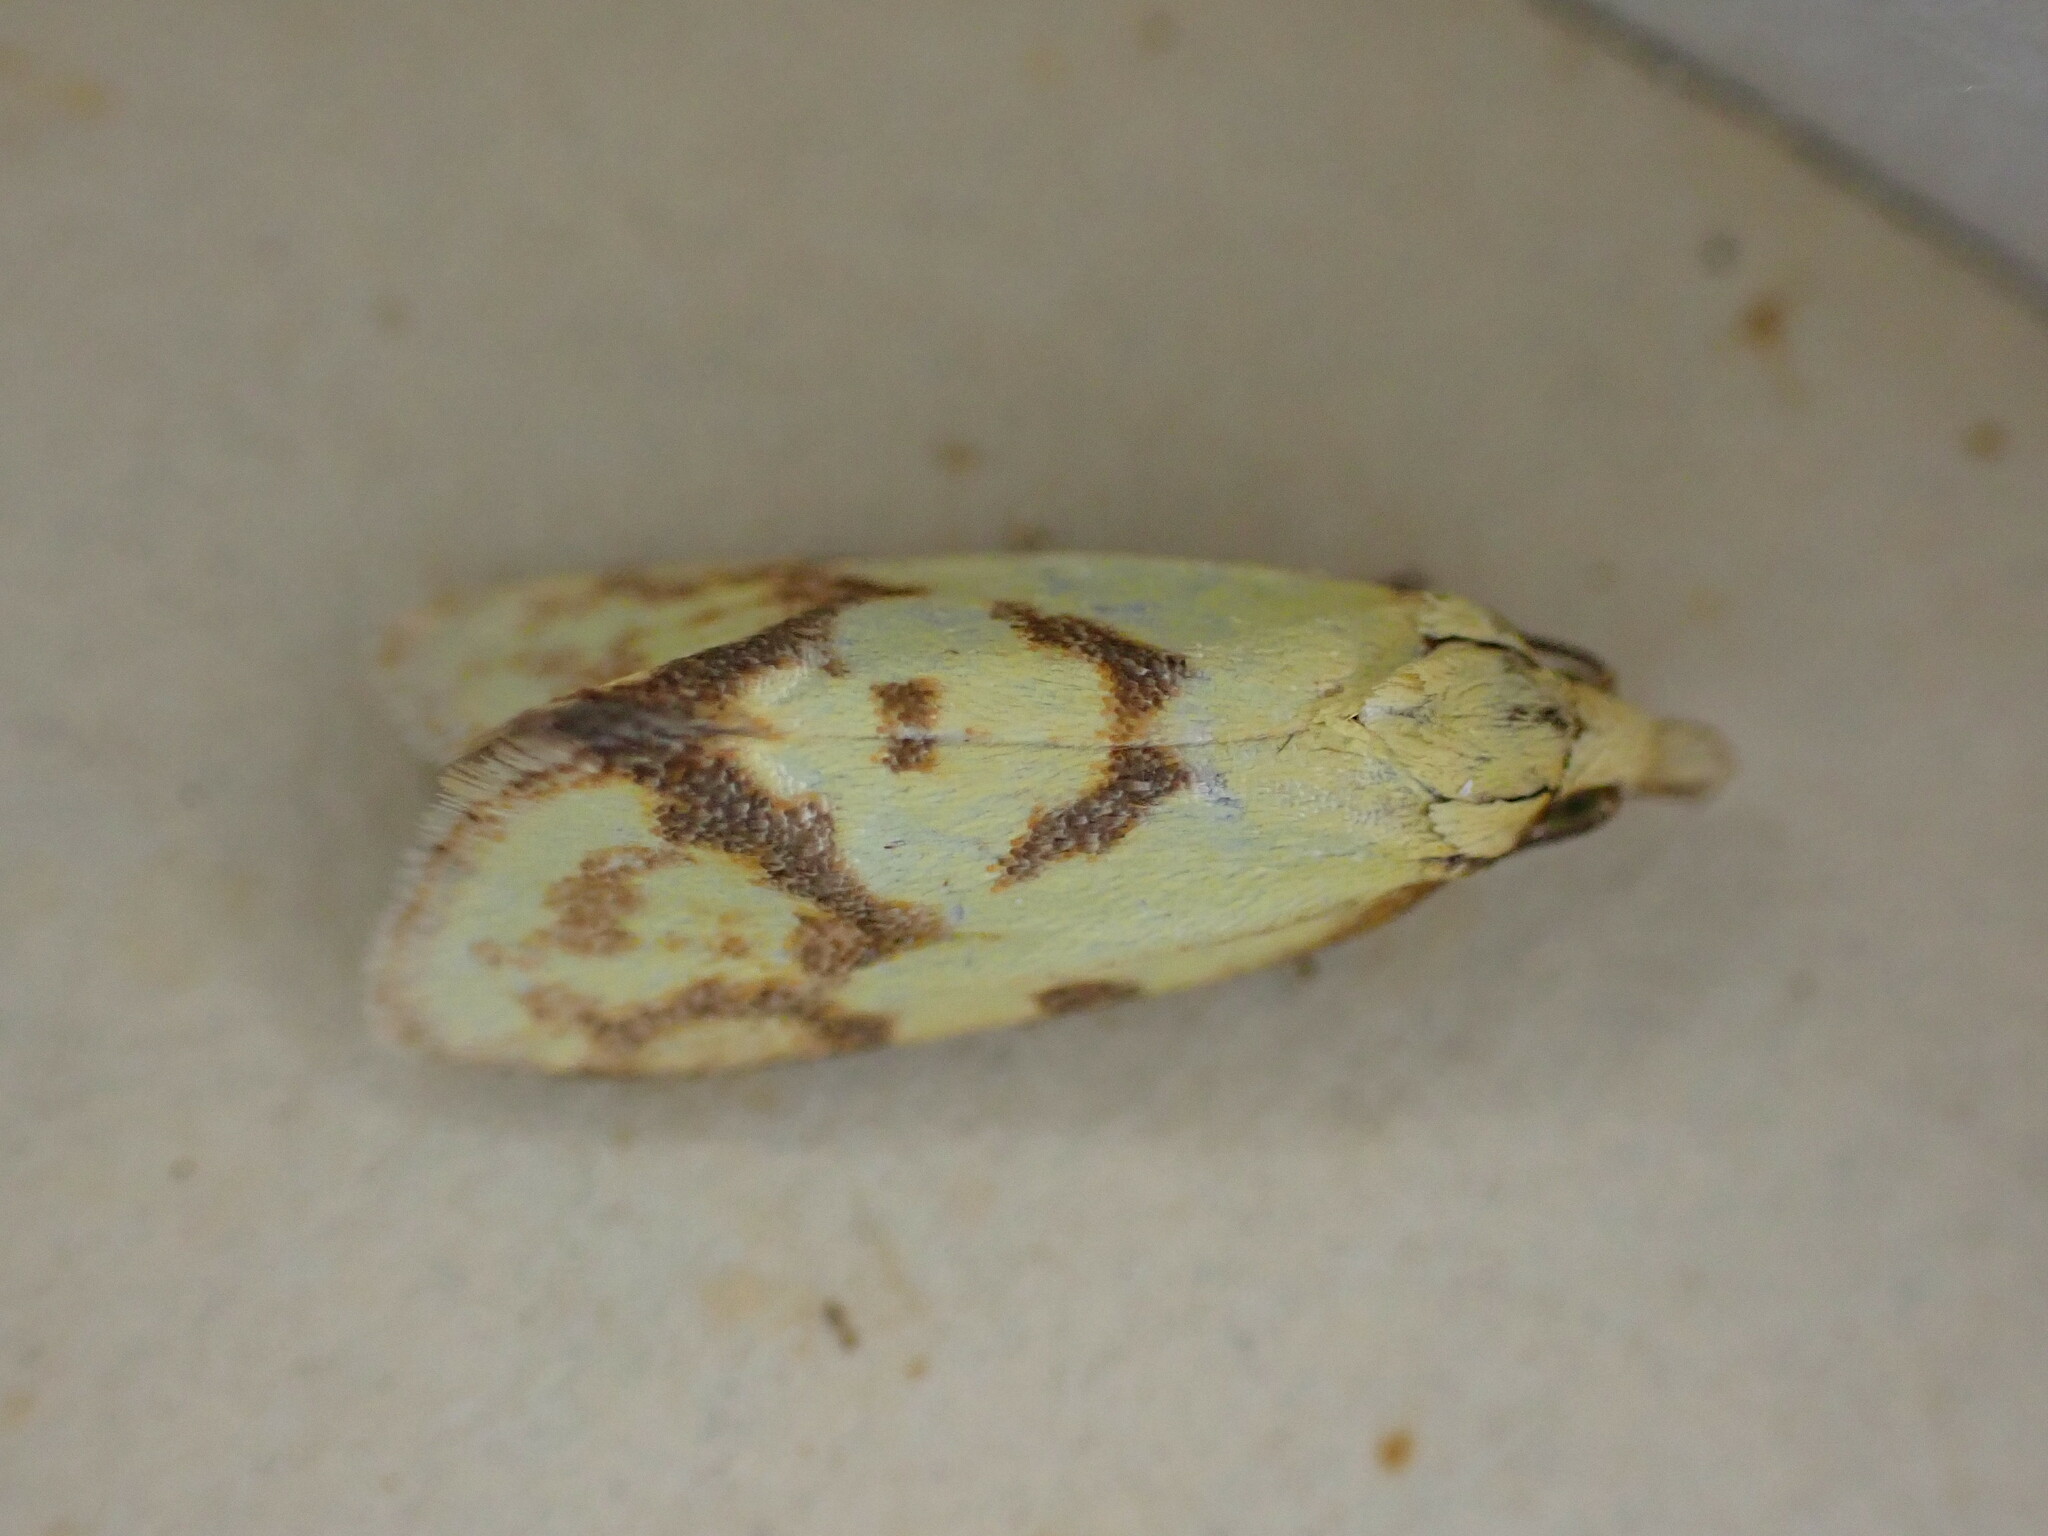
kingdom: Animalia
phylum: Arthropoda
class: Insecta
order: Lepidoptera
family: Tortricidae
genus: Agapeta
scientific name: Agapeta hamana
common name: Common yellow conch
